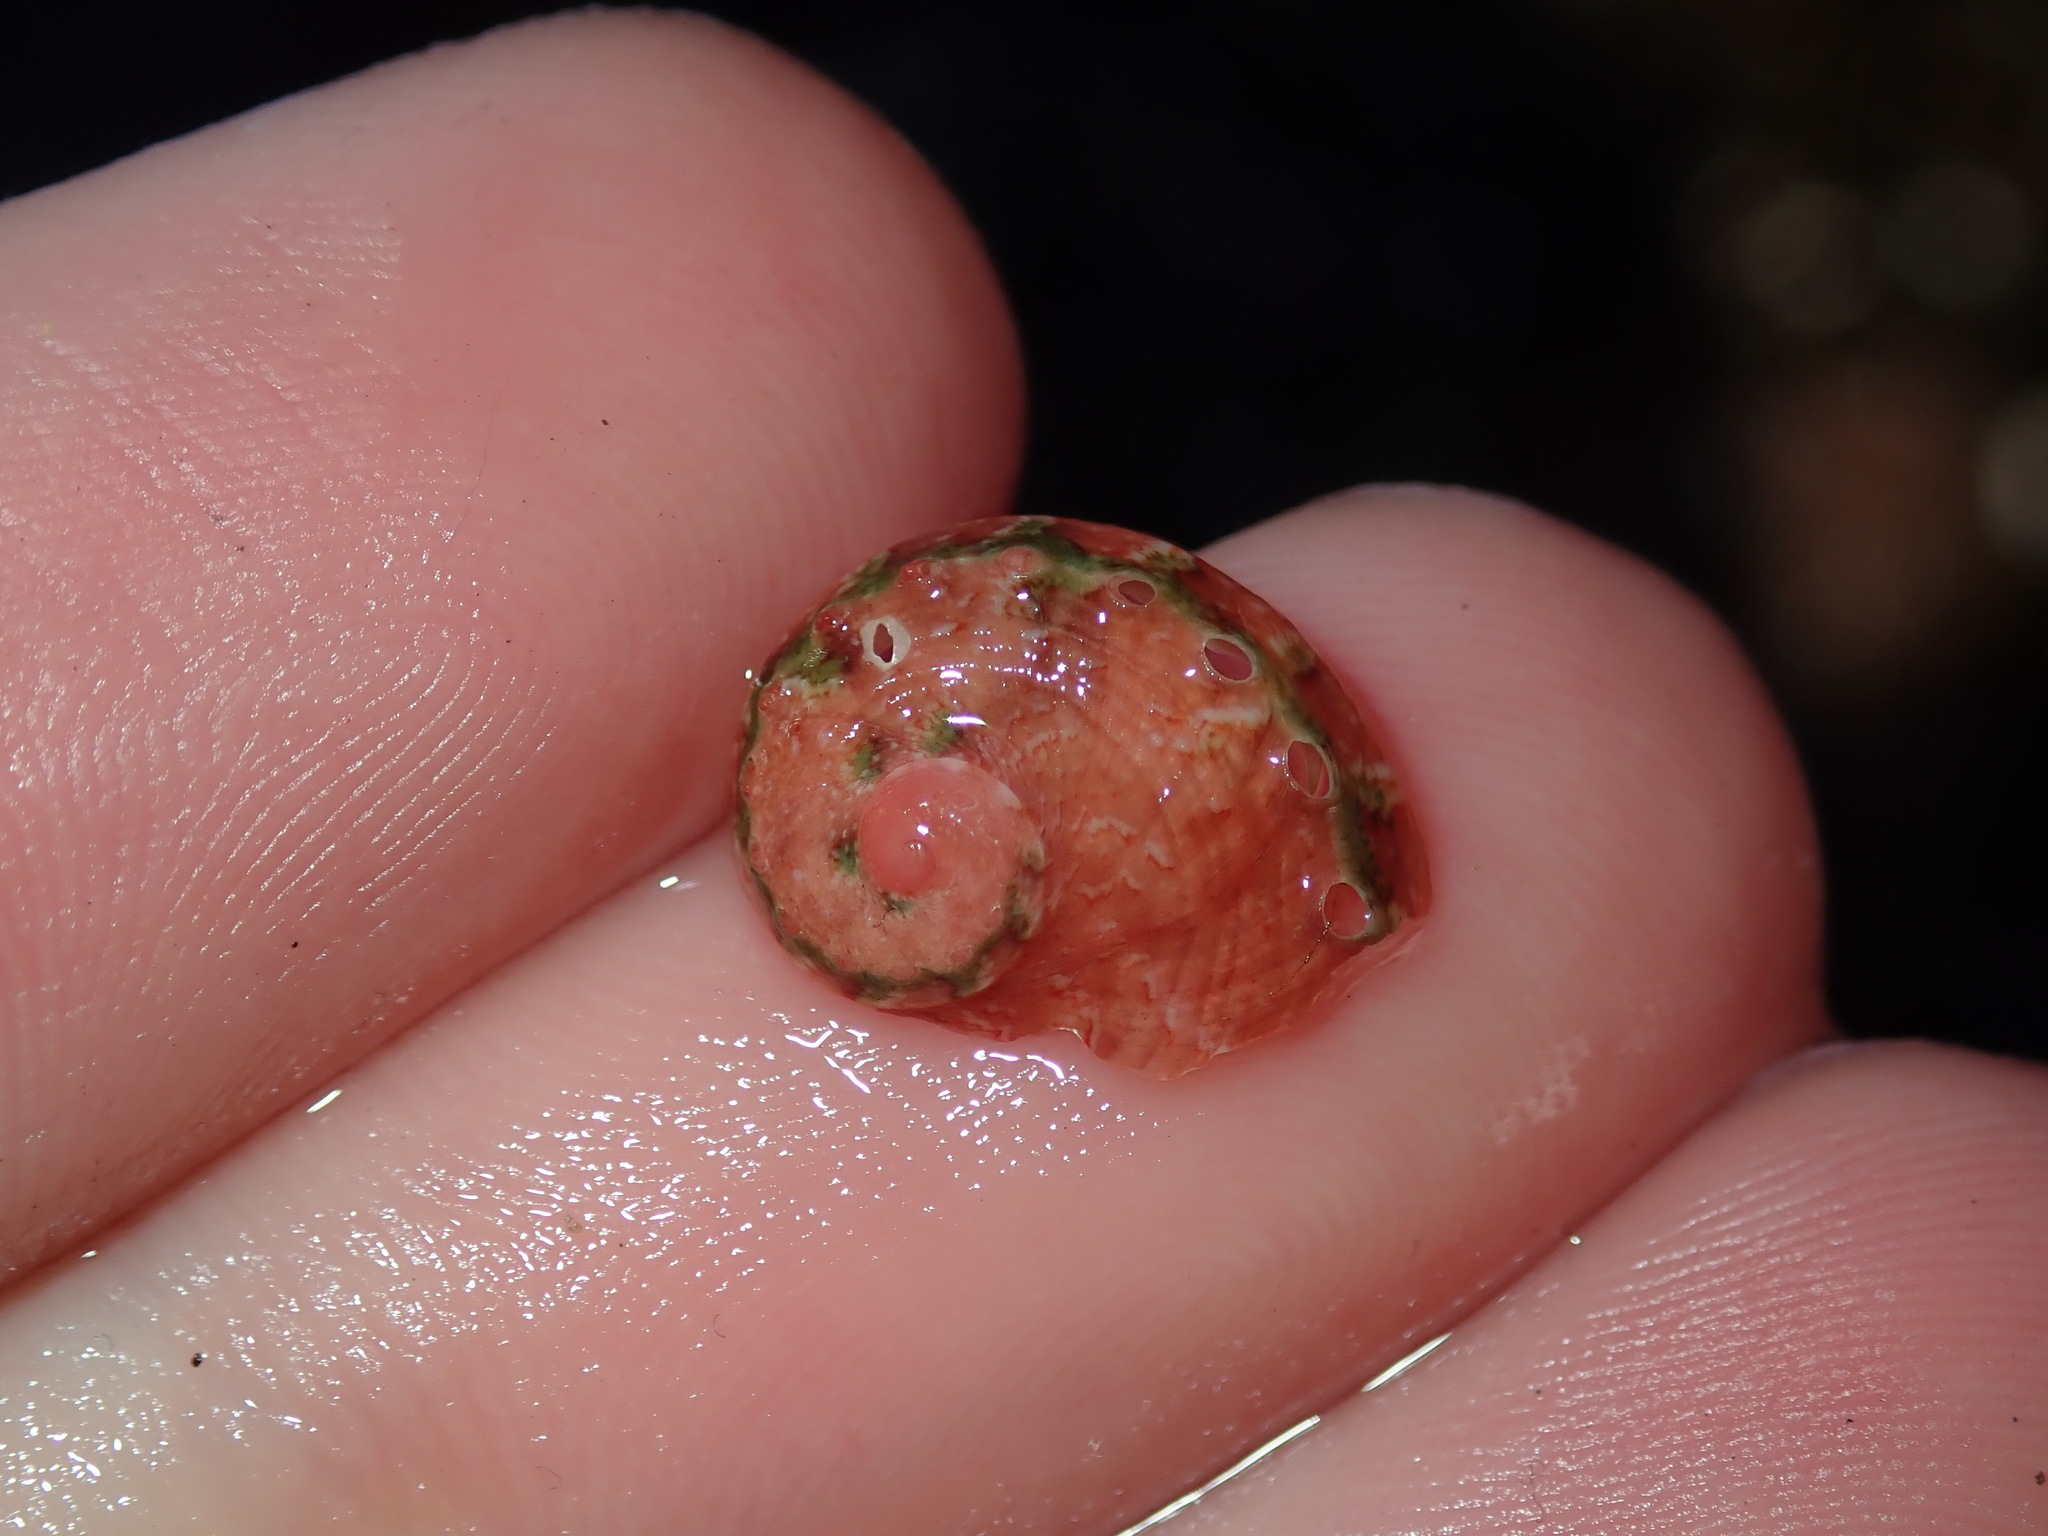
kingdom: Animalia
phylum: Mollusca
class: Gastropoda
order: Lepetellida
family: Haliotidae
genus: Haliotis
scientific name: Haliotis brazieri
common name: Brazier's ear shell
